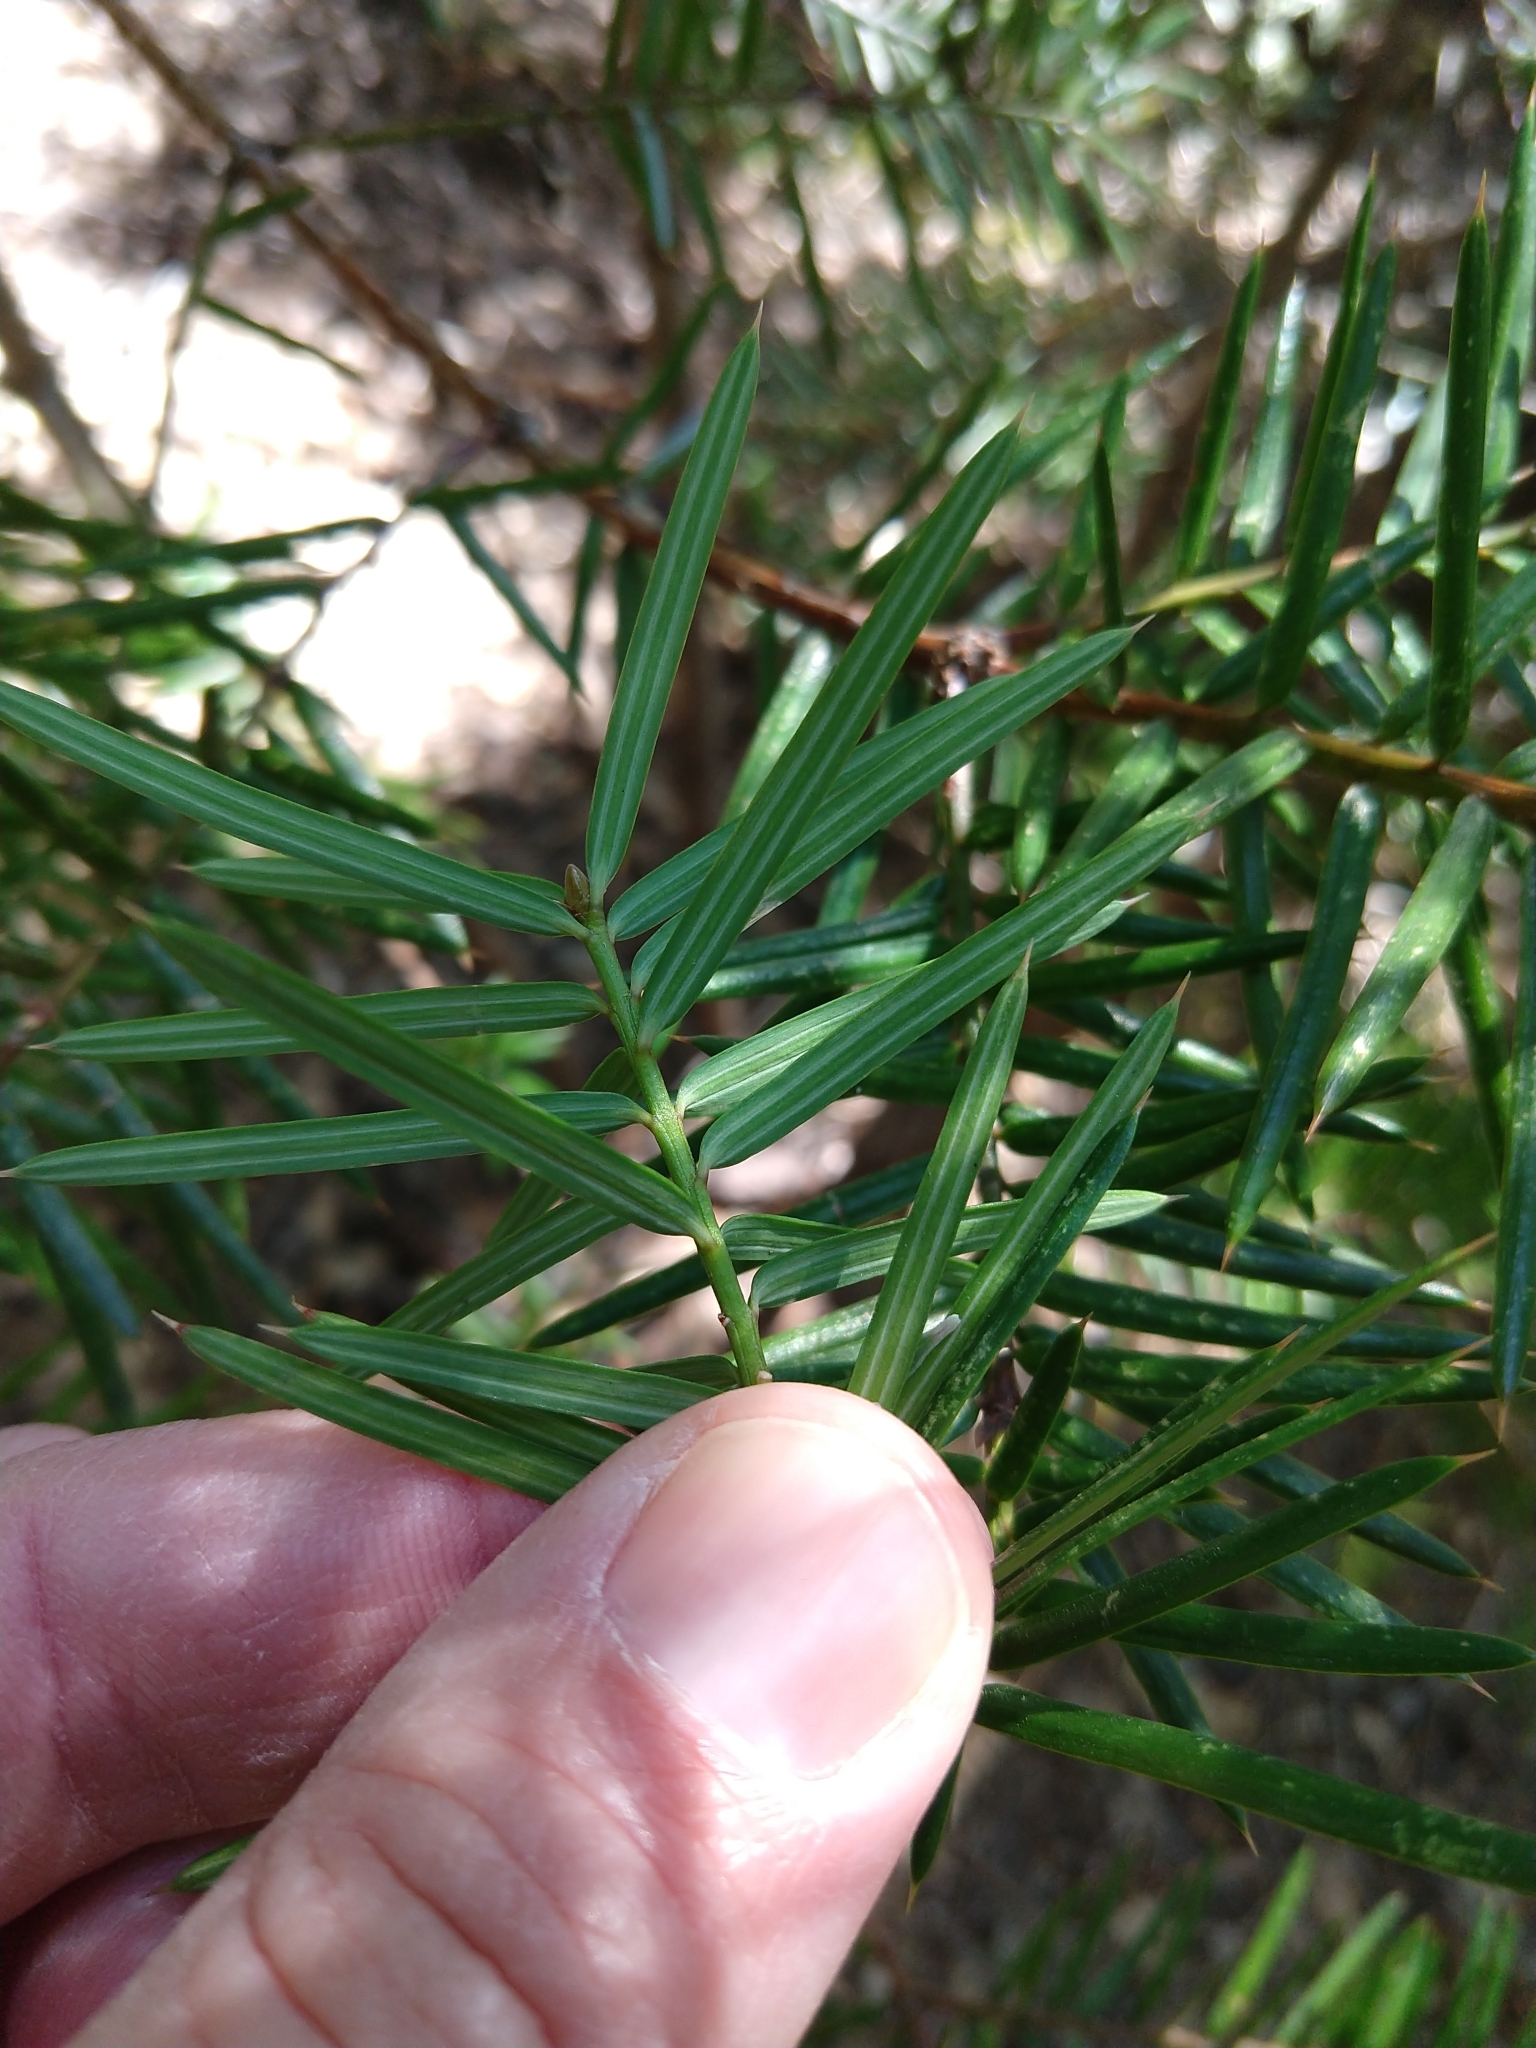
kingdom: Plantae
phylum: Tracheophyta
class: Pinopsida
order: Pinales
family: Taxaceae
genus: Torreya
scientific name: Torreya californica
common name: California torreya
